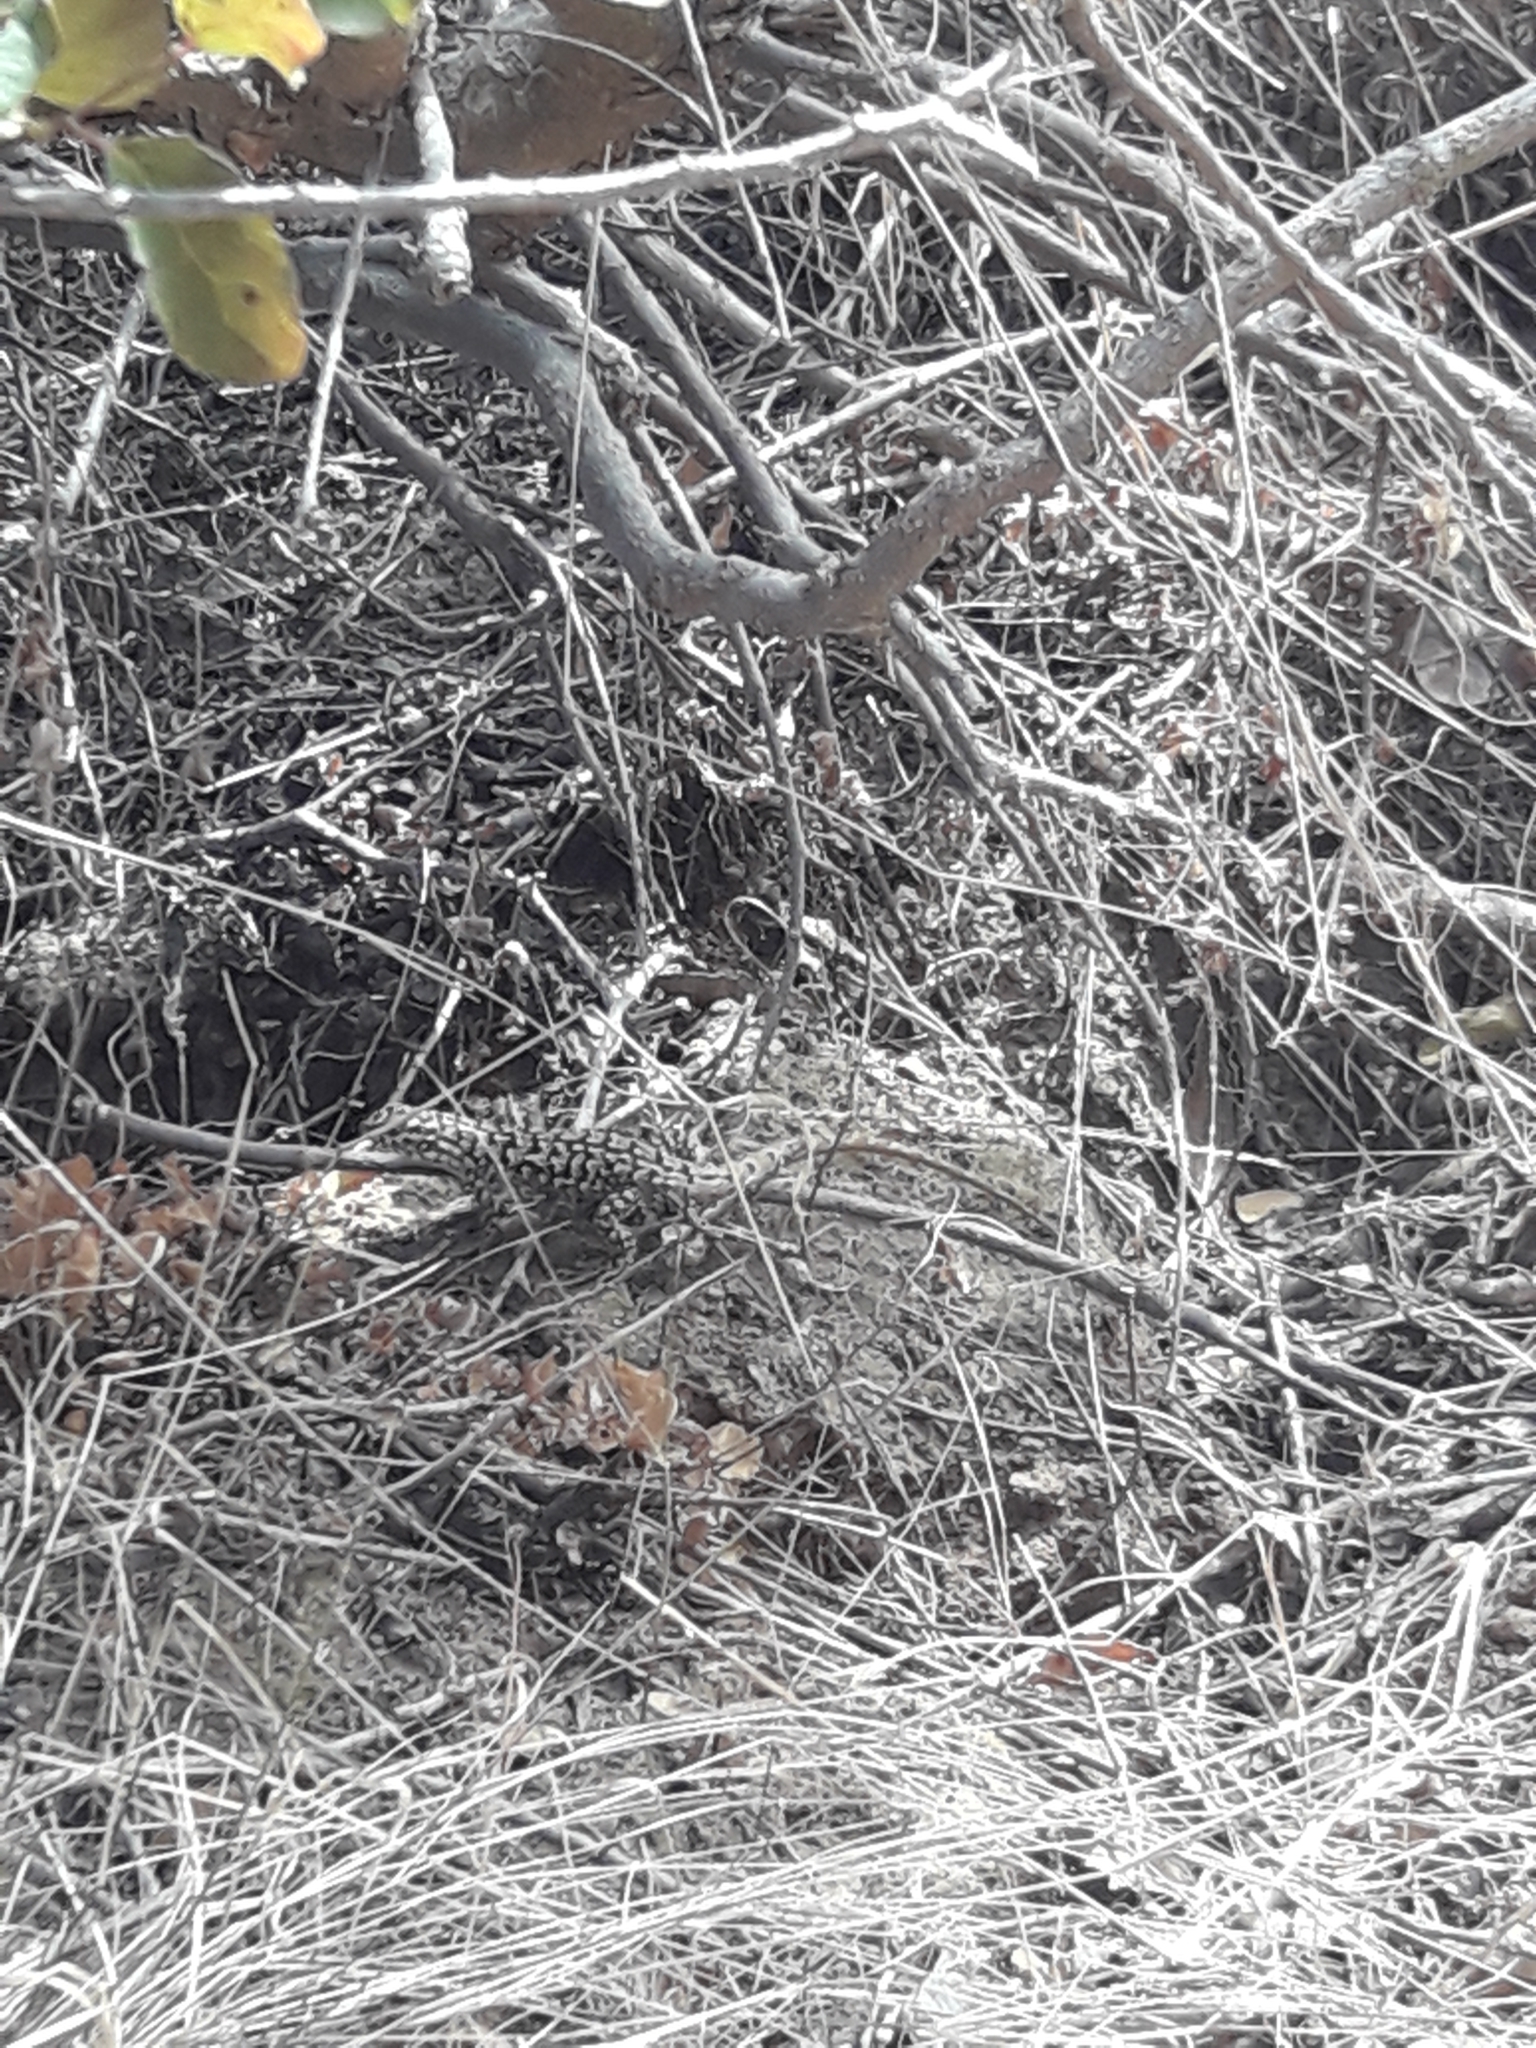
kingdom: Animalia
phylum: Chordata
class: Squamata
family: Liolaemidae
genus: Liolaemus
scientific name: Liolaemus nitidus
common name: Shining tree iguana
